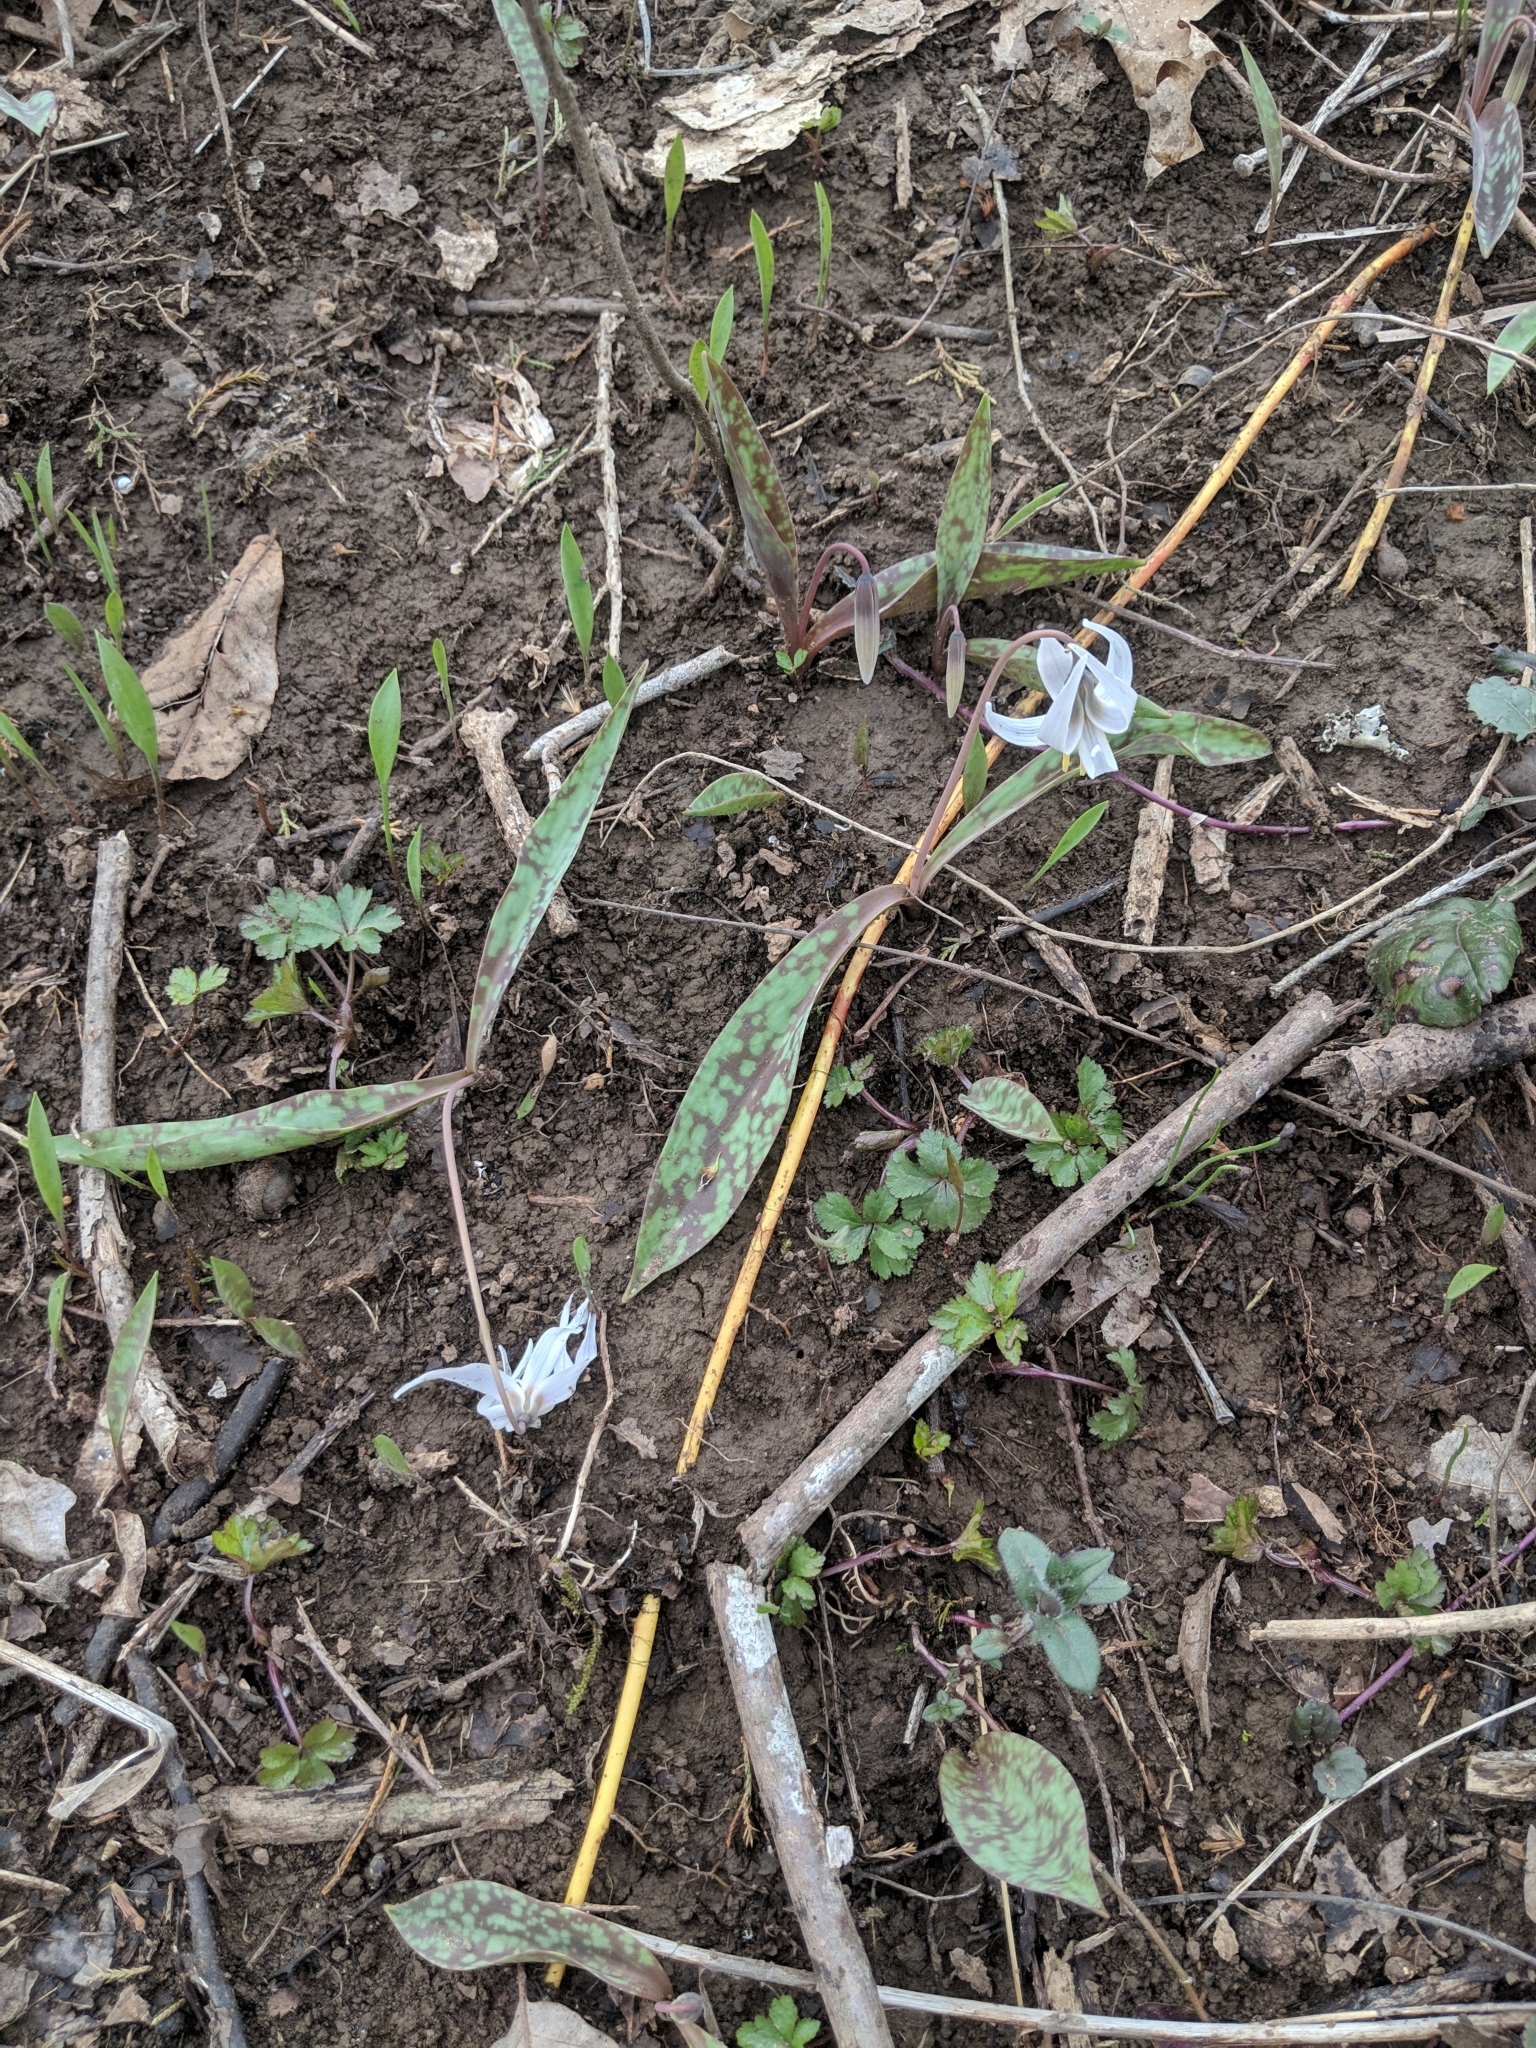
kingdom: Plantae
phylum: Tracheophyta
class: Liliopsida
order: Liliales
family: Liliaceae
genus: Erythronium
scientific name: Erythronium albidum
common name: White trout-lily
